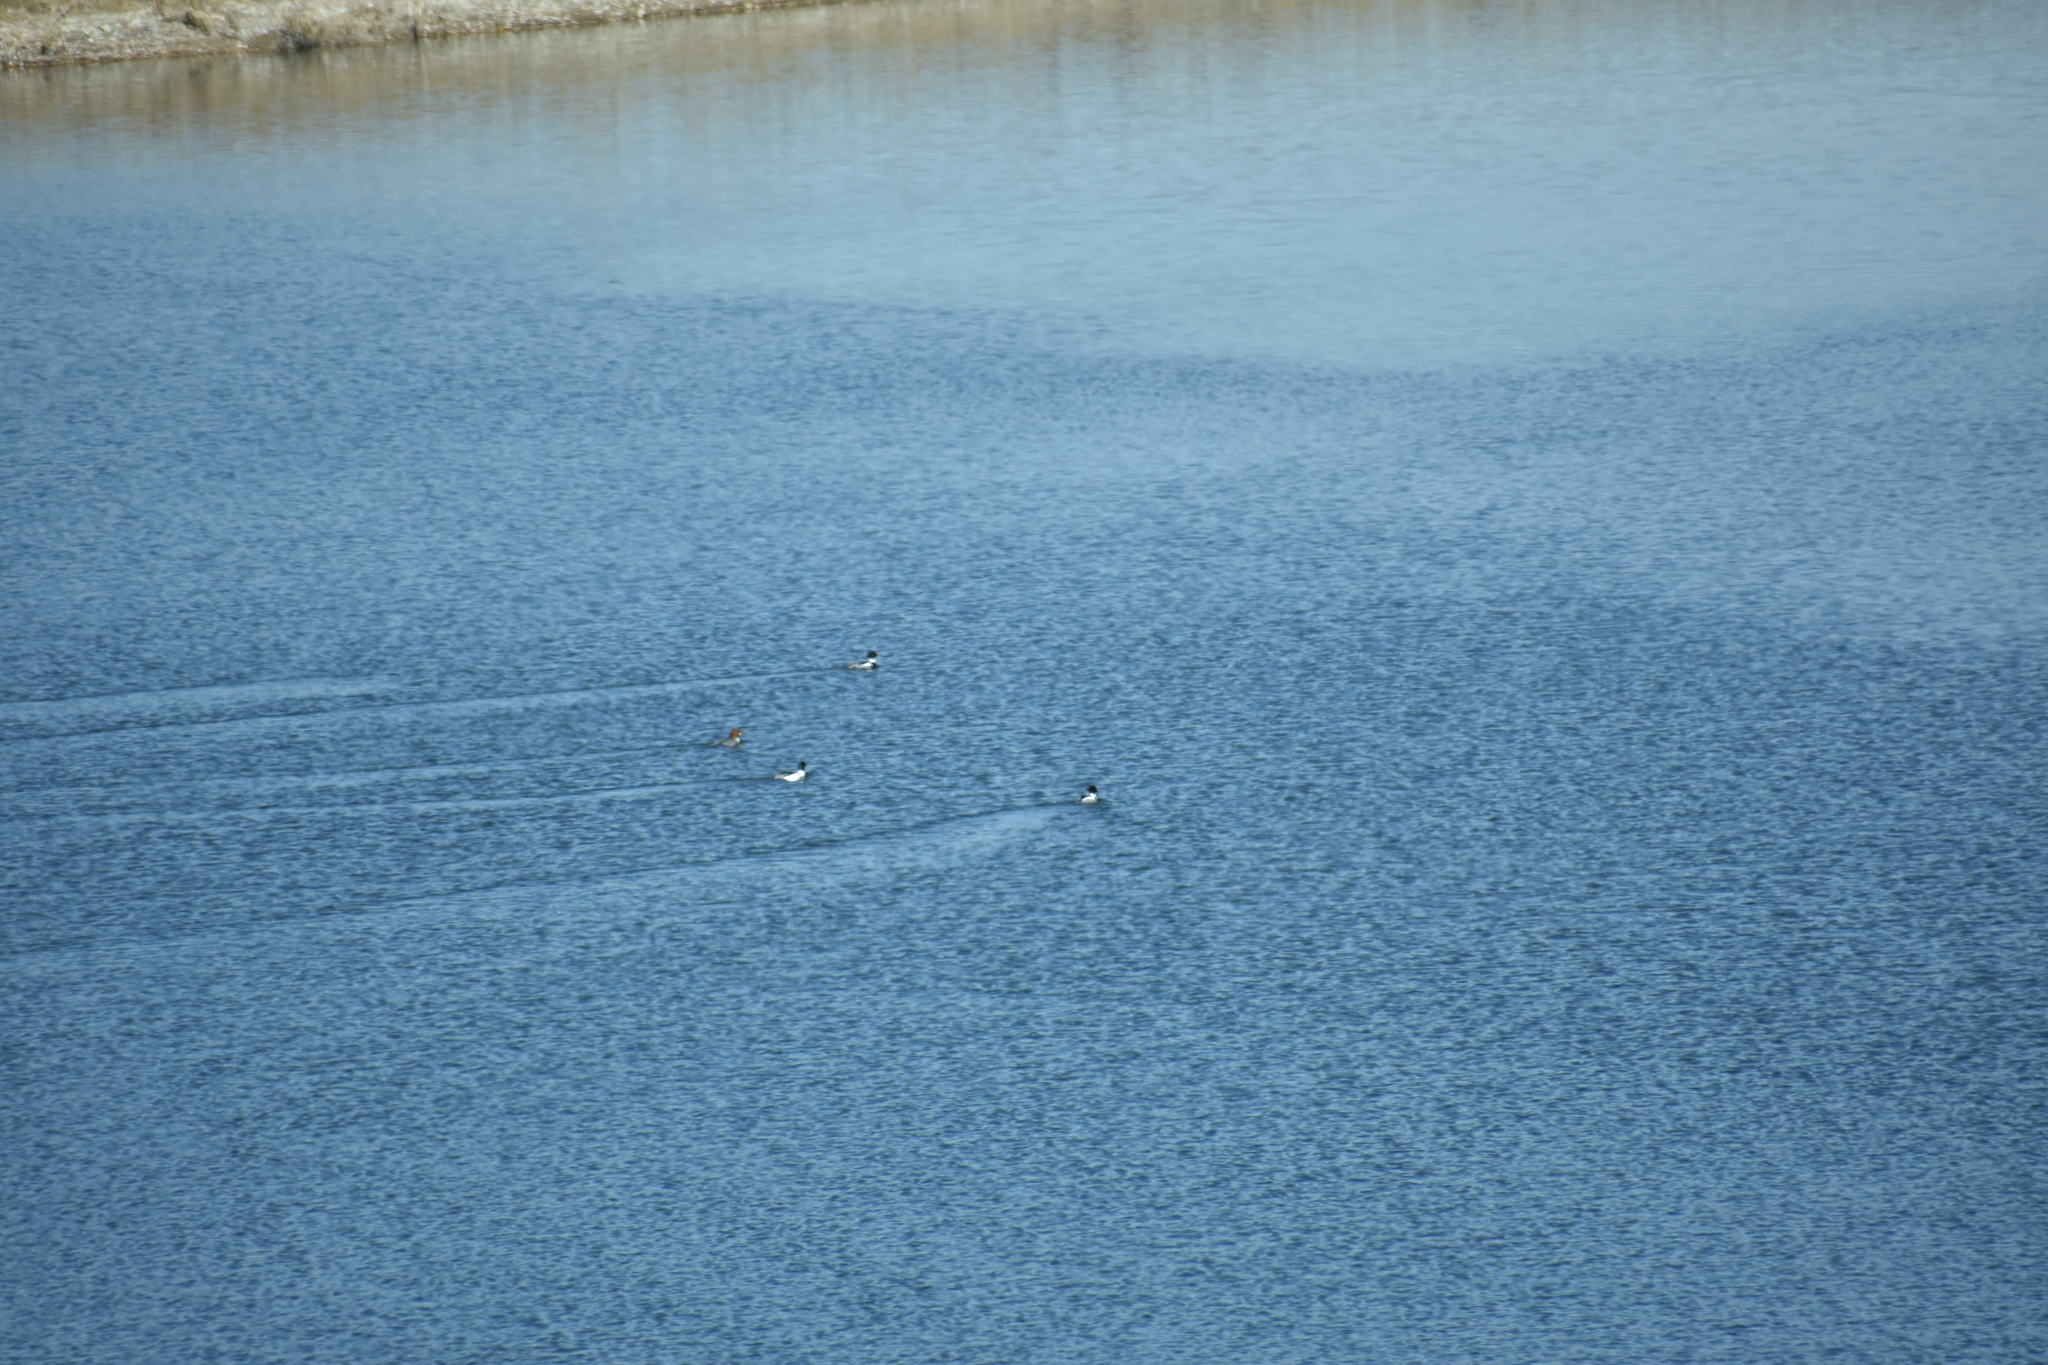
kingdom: Animalia
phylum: Chordata
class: Aves
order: Anseriformes
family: Anatidae
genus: Mergus
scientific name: Mergus serrator
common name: Red-breasted merganser
